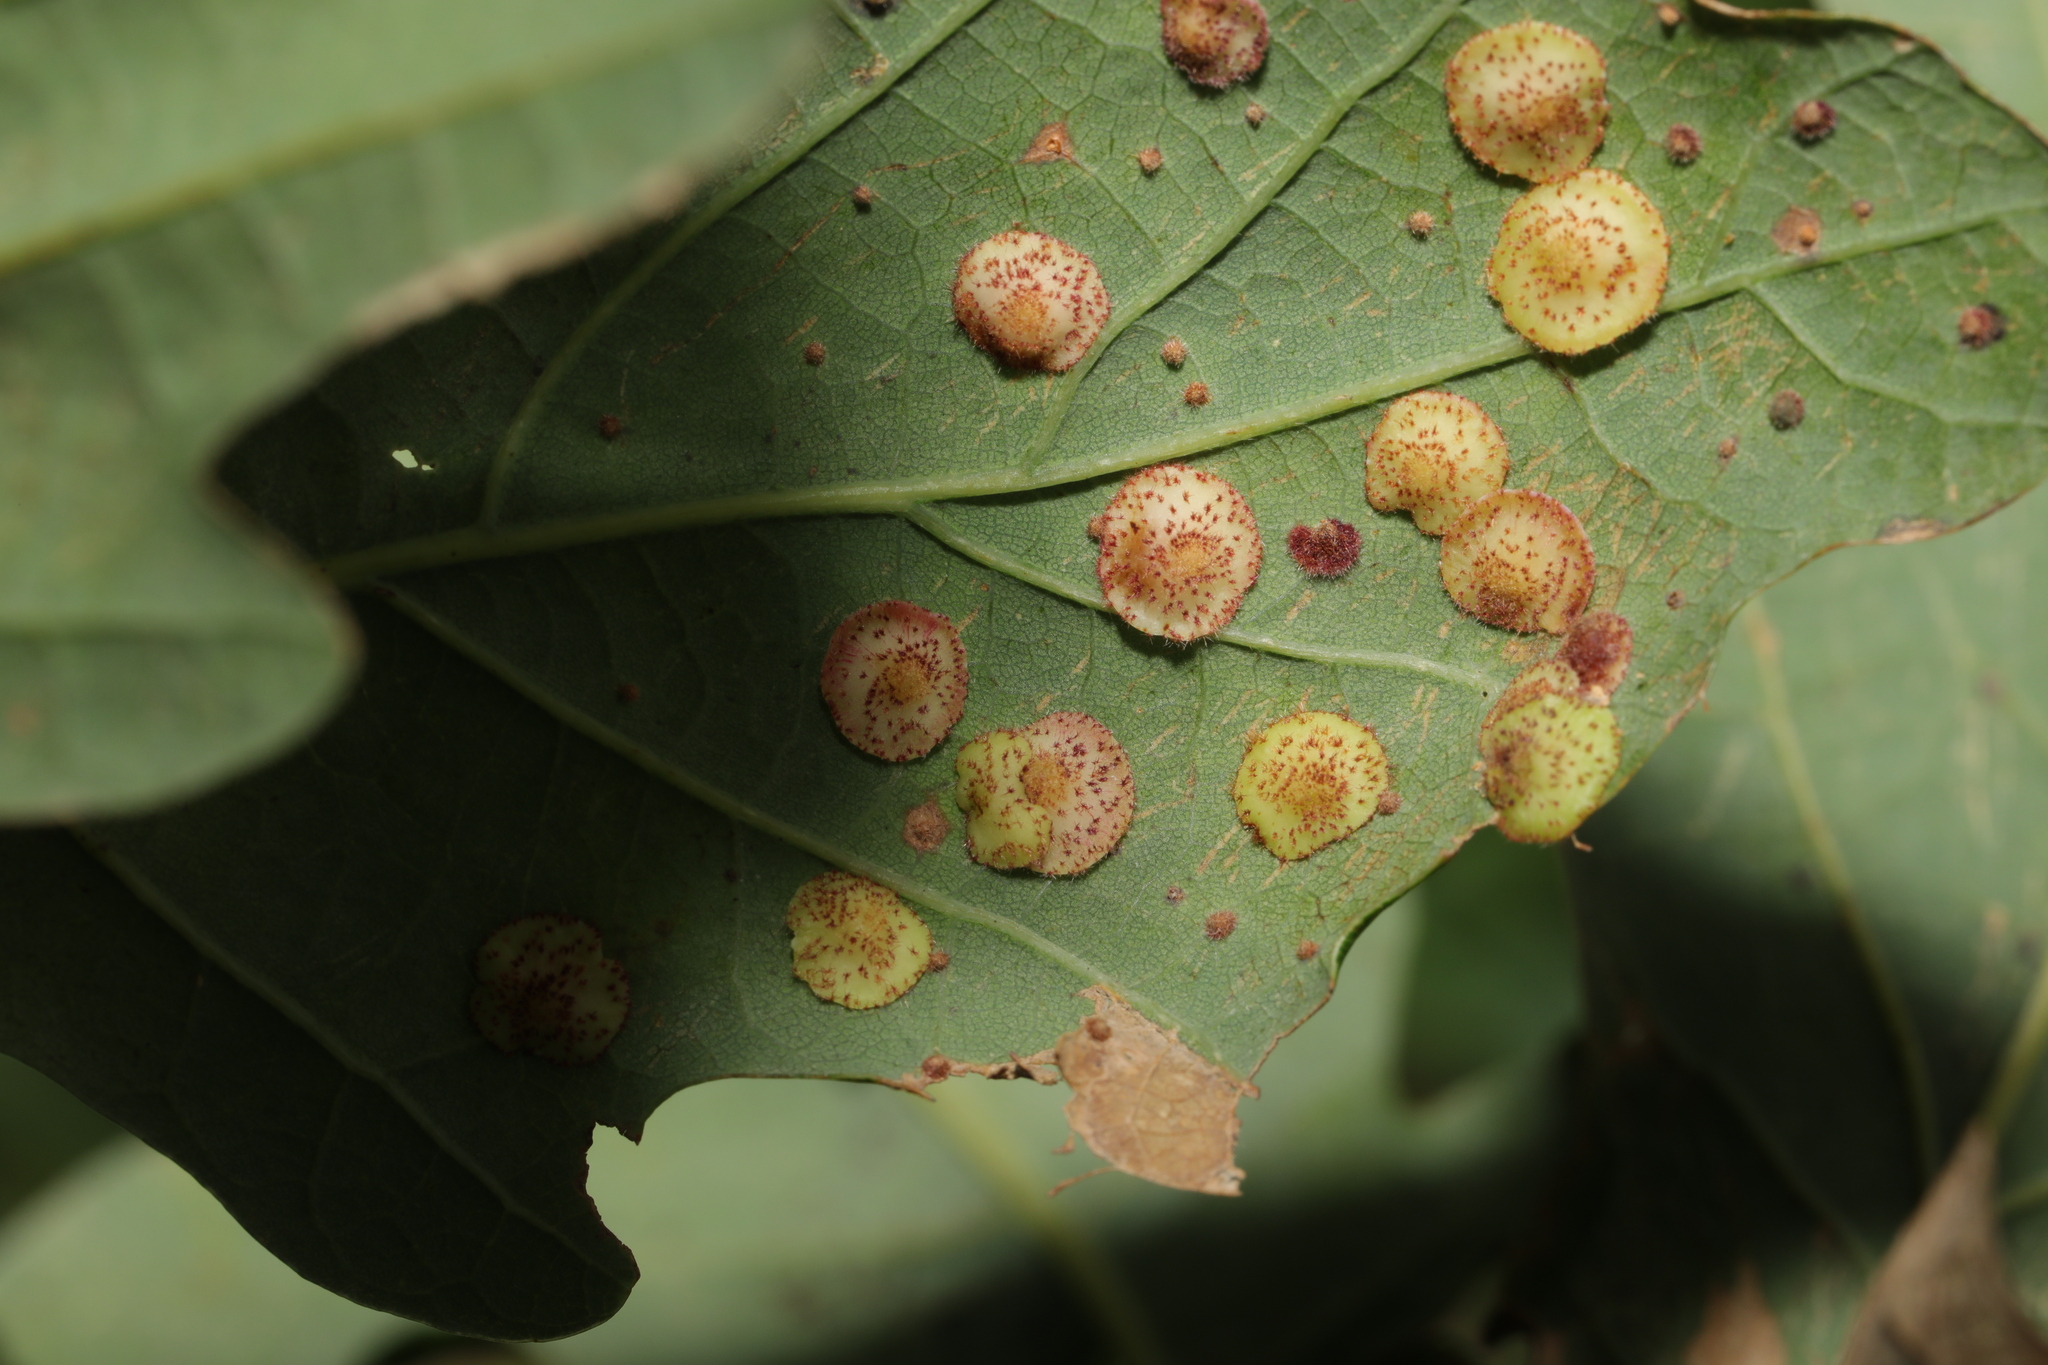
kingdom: Animalia
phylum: Arthropoda
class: Insecta
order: Hymenoptera
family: Cynipidae
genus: Neuroterus
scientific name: Neuroterus quercusbaccarum
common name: Common spangle gall
